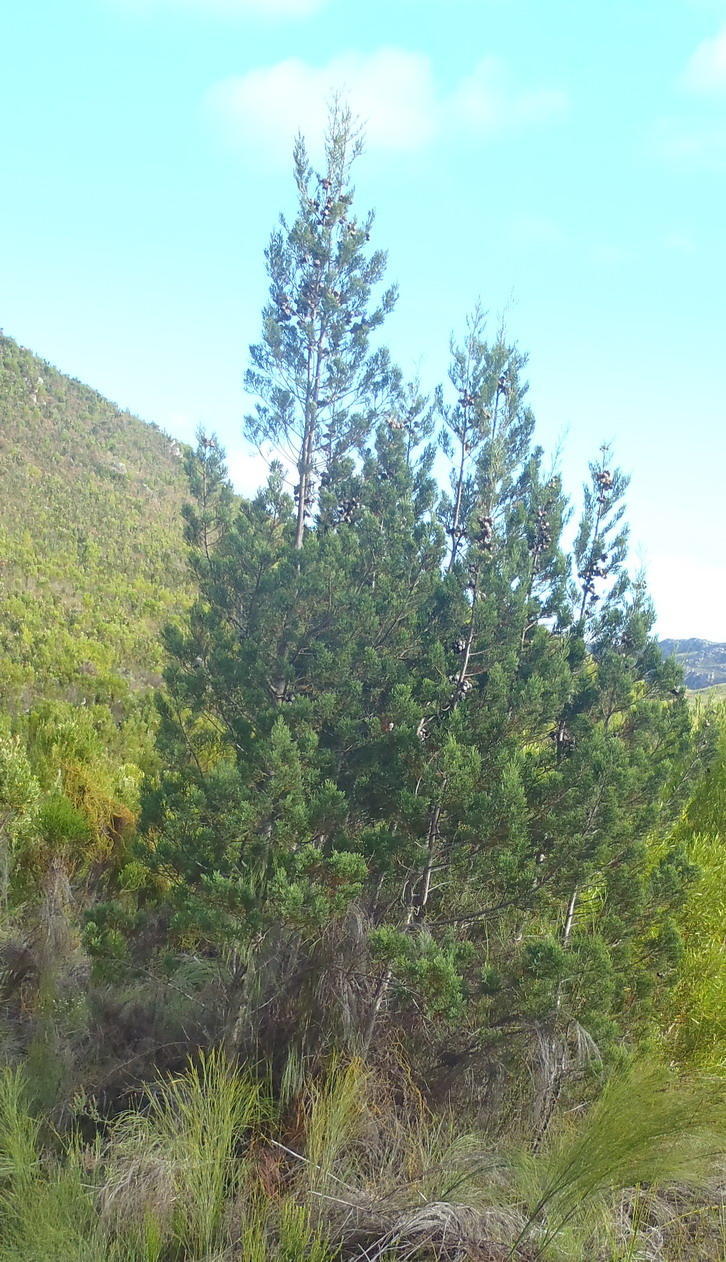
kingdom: Plantae
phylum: Tracheophyta
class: Pinopsida
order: Pinales
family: Cupressaceae
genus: Widdringtonia
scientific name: Widdringtonia nodiflora
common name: Cape cypress
